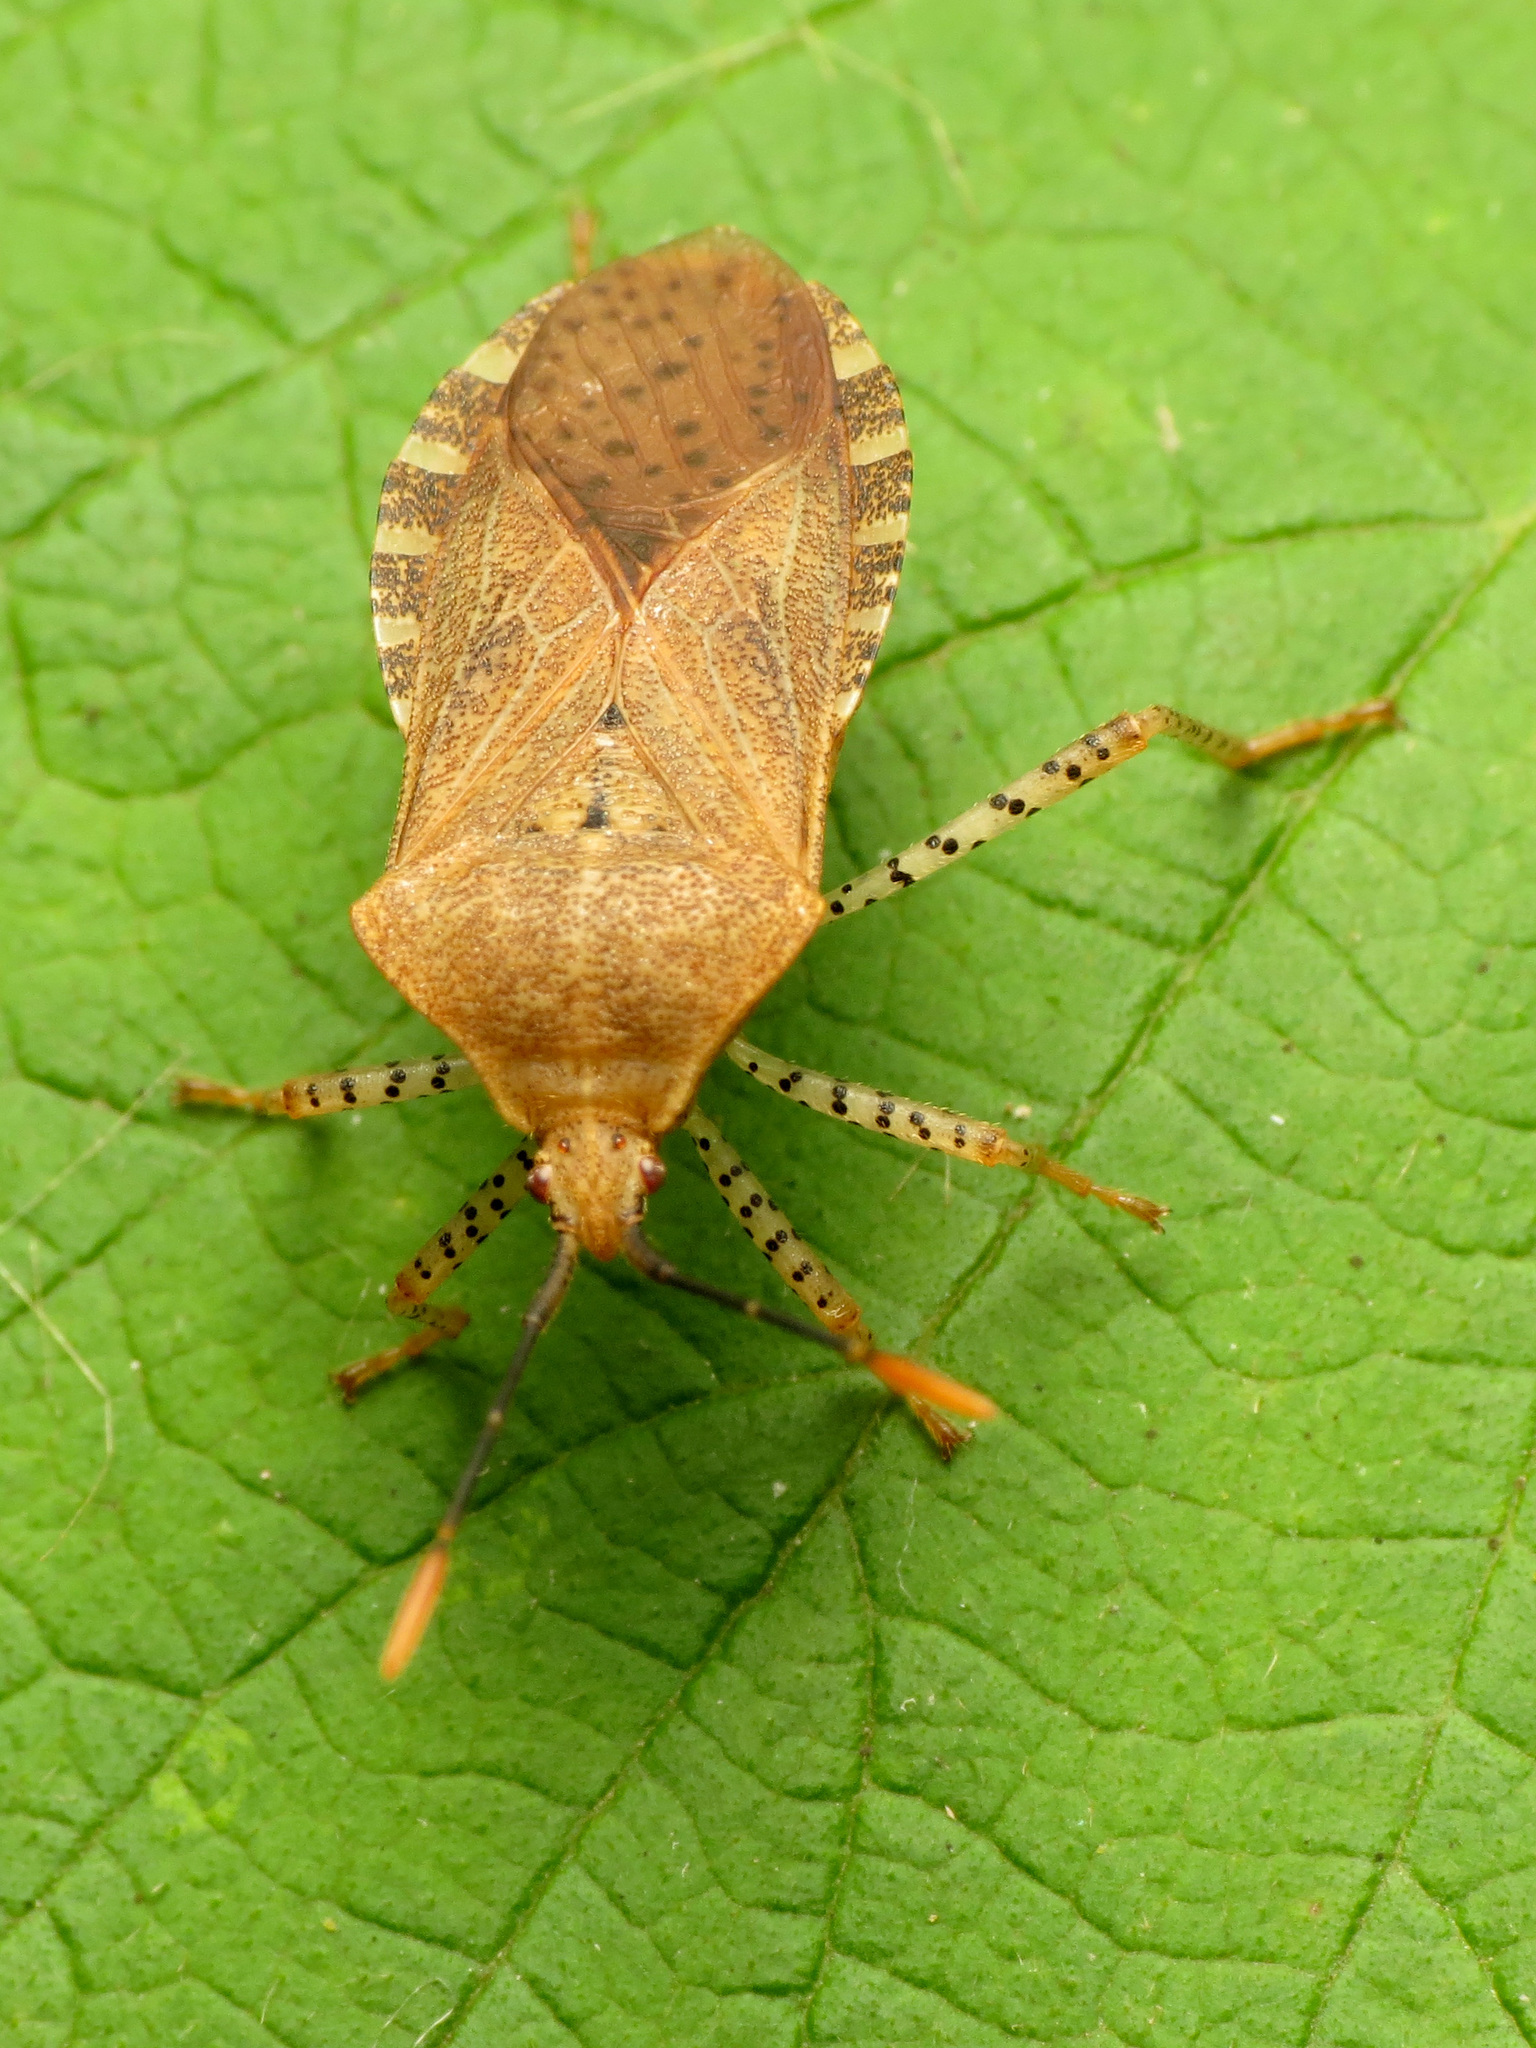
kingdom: Animalia
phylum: Arthropoda
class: Insecta
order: Hemiptera
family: Coreidae
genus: Anasa
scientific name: Anasa repetita
